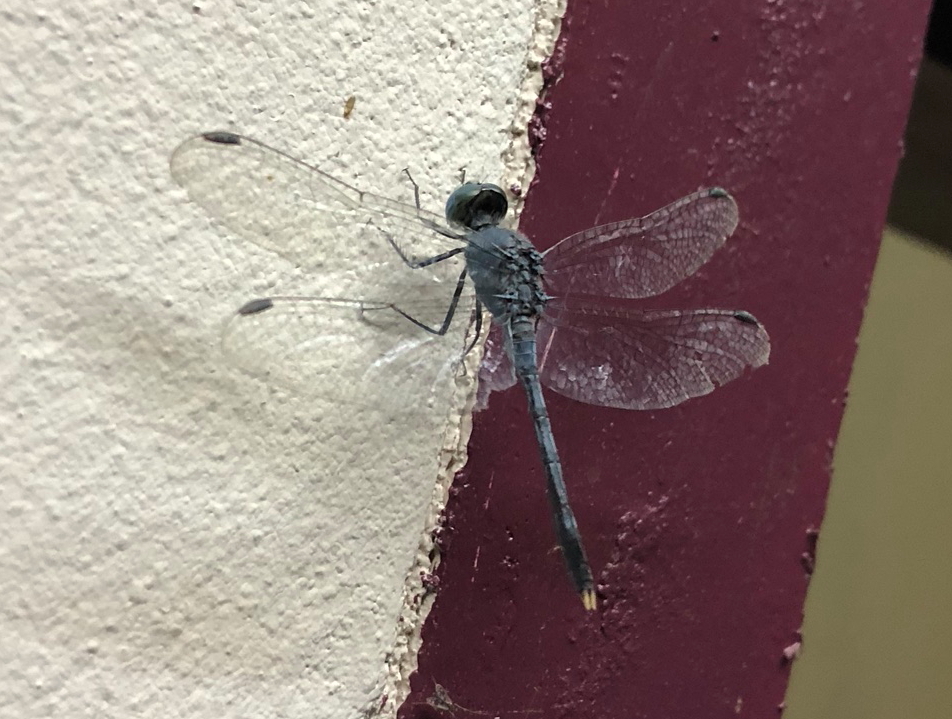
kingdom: Animalia
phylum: Arthropoda
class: Insecta
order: Odonata
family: Libellulidae
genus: Diplacodes
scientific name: Diplacodes trivialis
